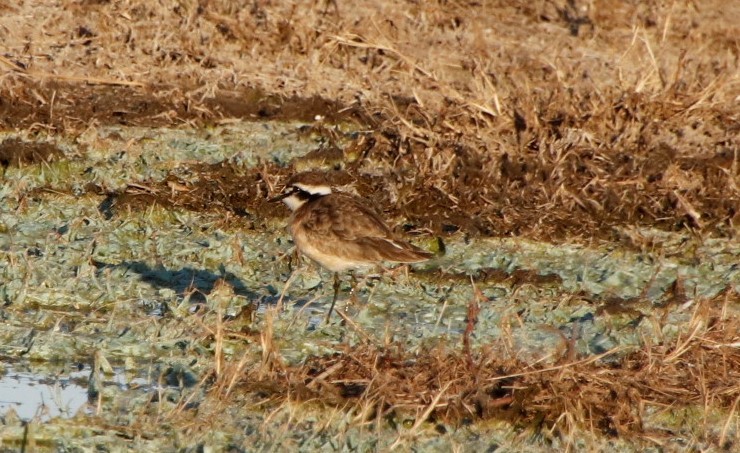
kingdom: Animalia
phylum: Chordata
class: Aves
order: Charadriiformes
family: Charadriidae
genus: Charadrius
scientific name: Charadrius tricollaris
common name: Three-banded plover
